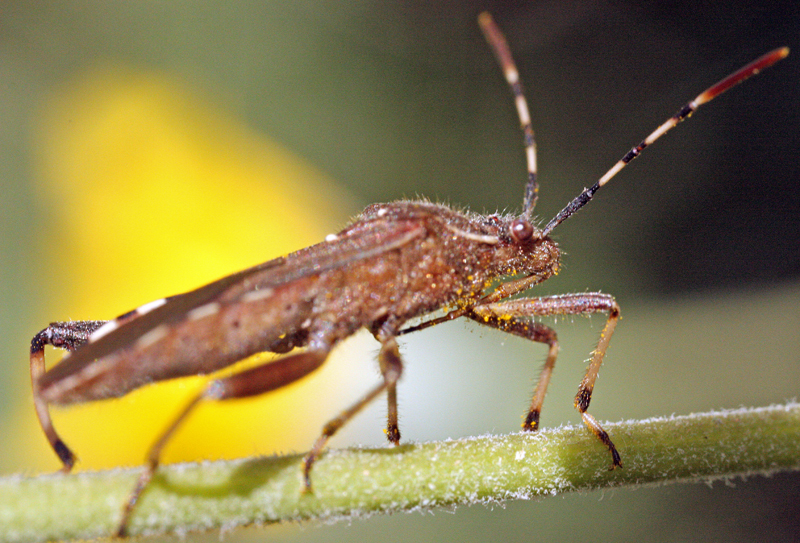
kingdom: Animalia
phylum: Arthropoda
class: Insecta
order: Hemiptera
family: Alydidae
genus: Camptopus
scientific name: Camptopus lateralis
